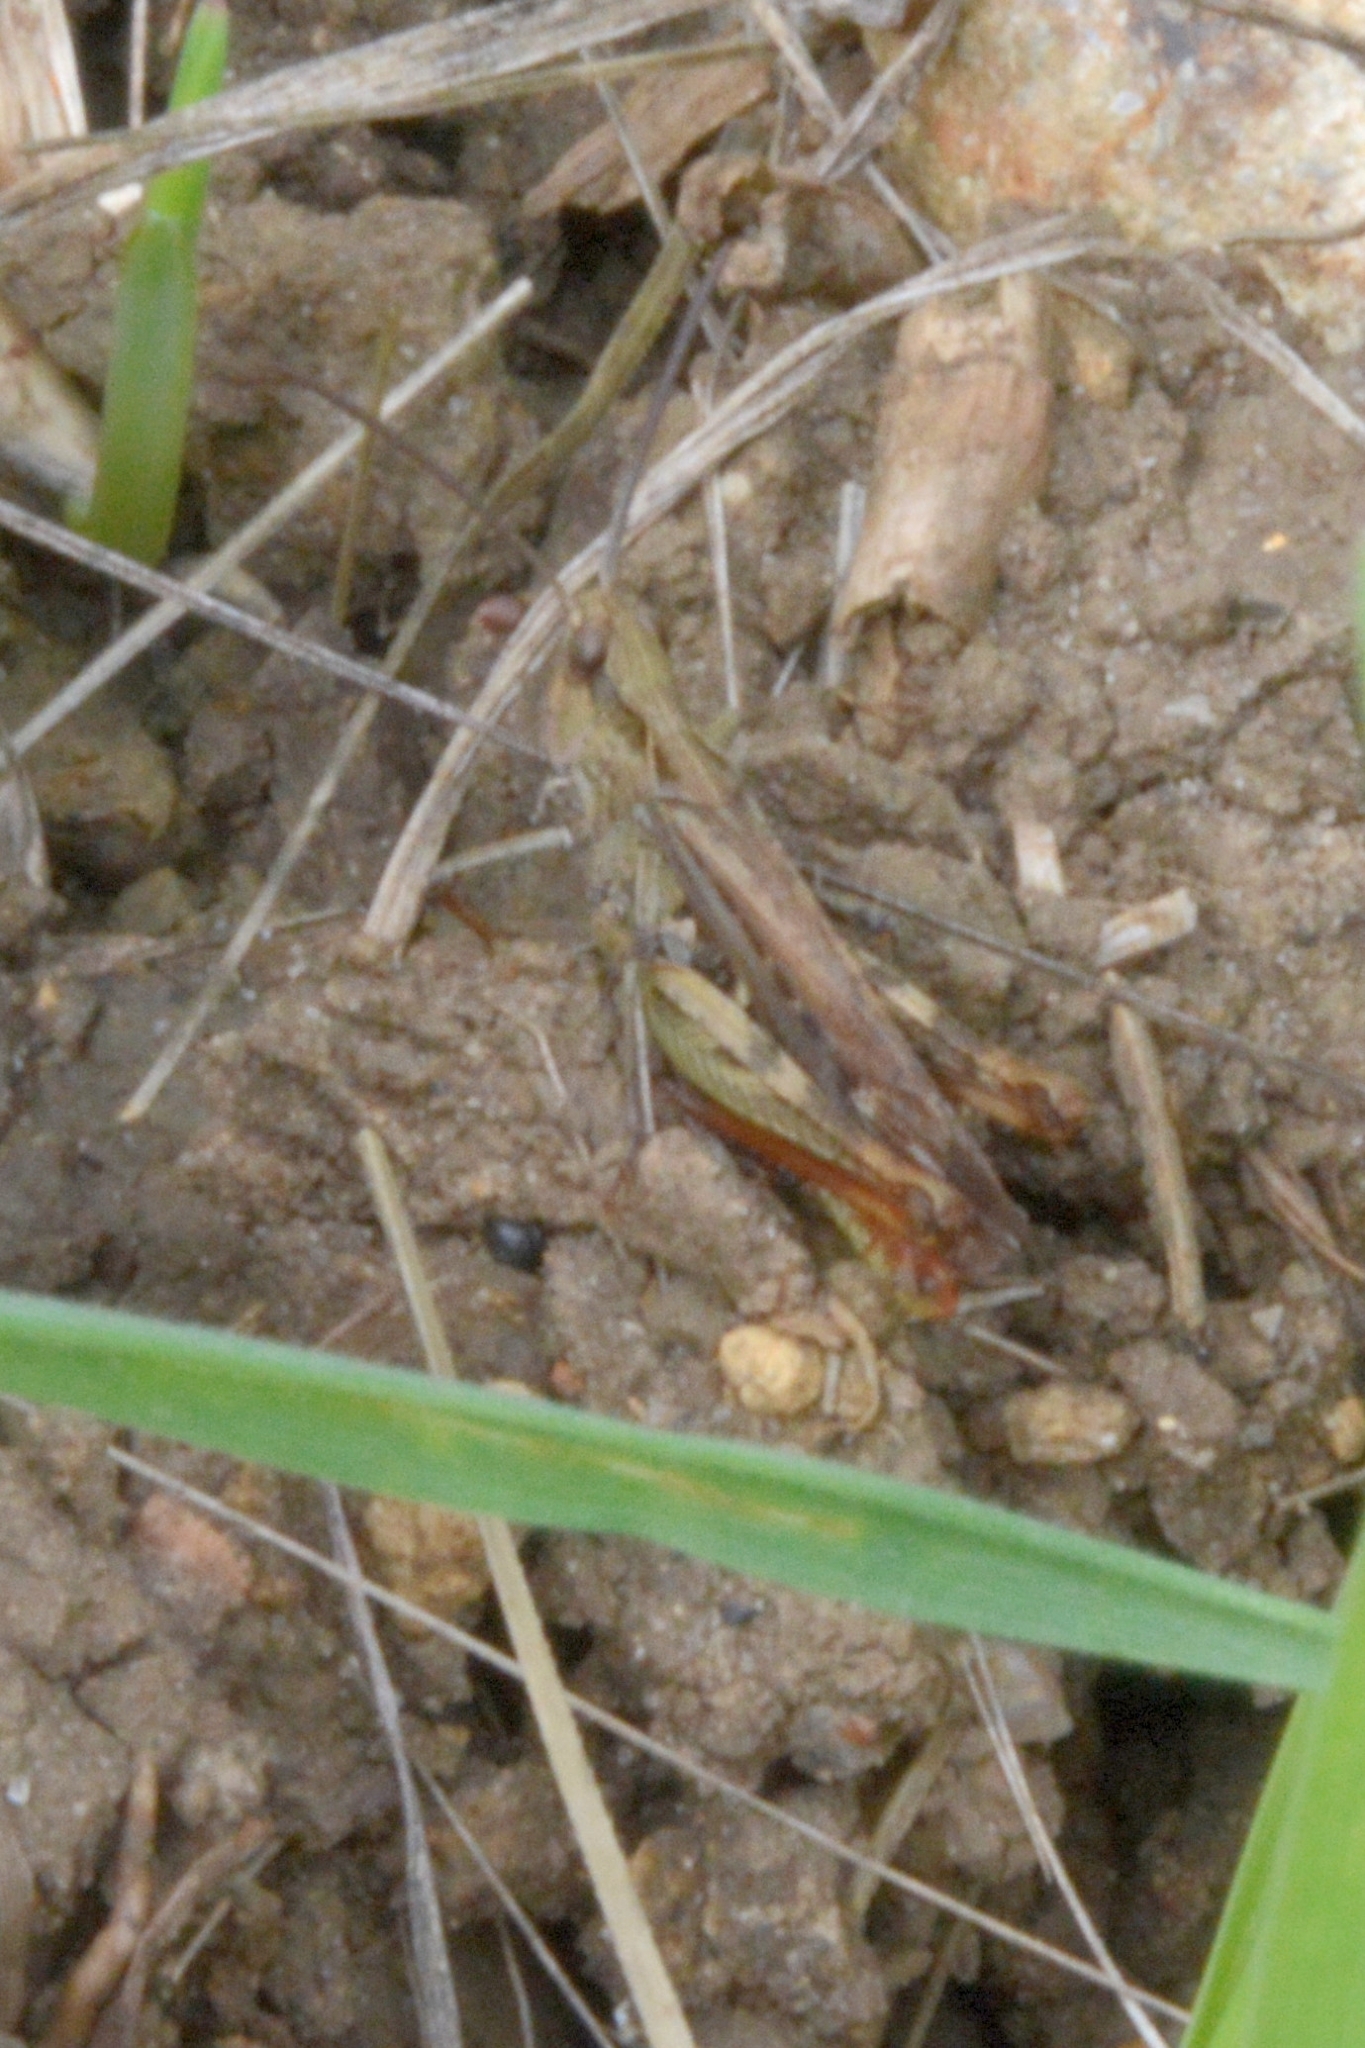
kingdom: Animalia
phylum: Arthropoda
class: Insecta
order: Orthoptera
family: Acrididae
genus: Chorthippus
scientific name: Chorthippus brunneus
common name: Field grasshopper
